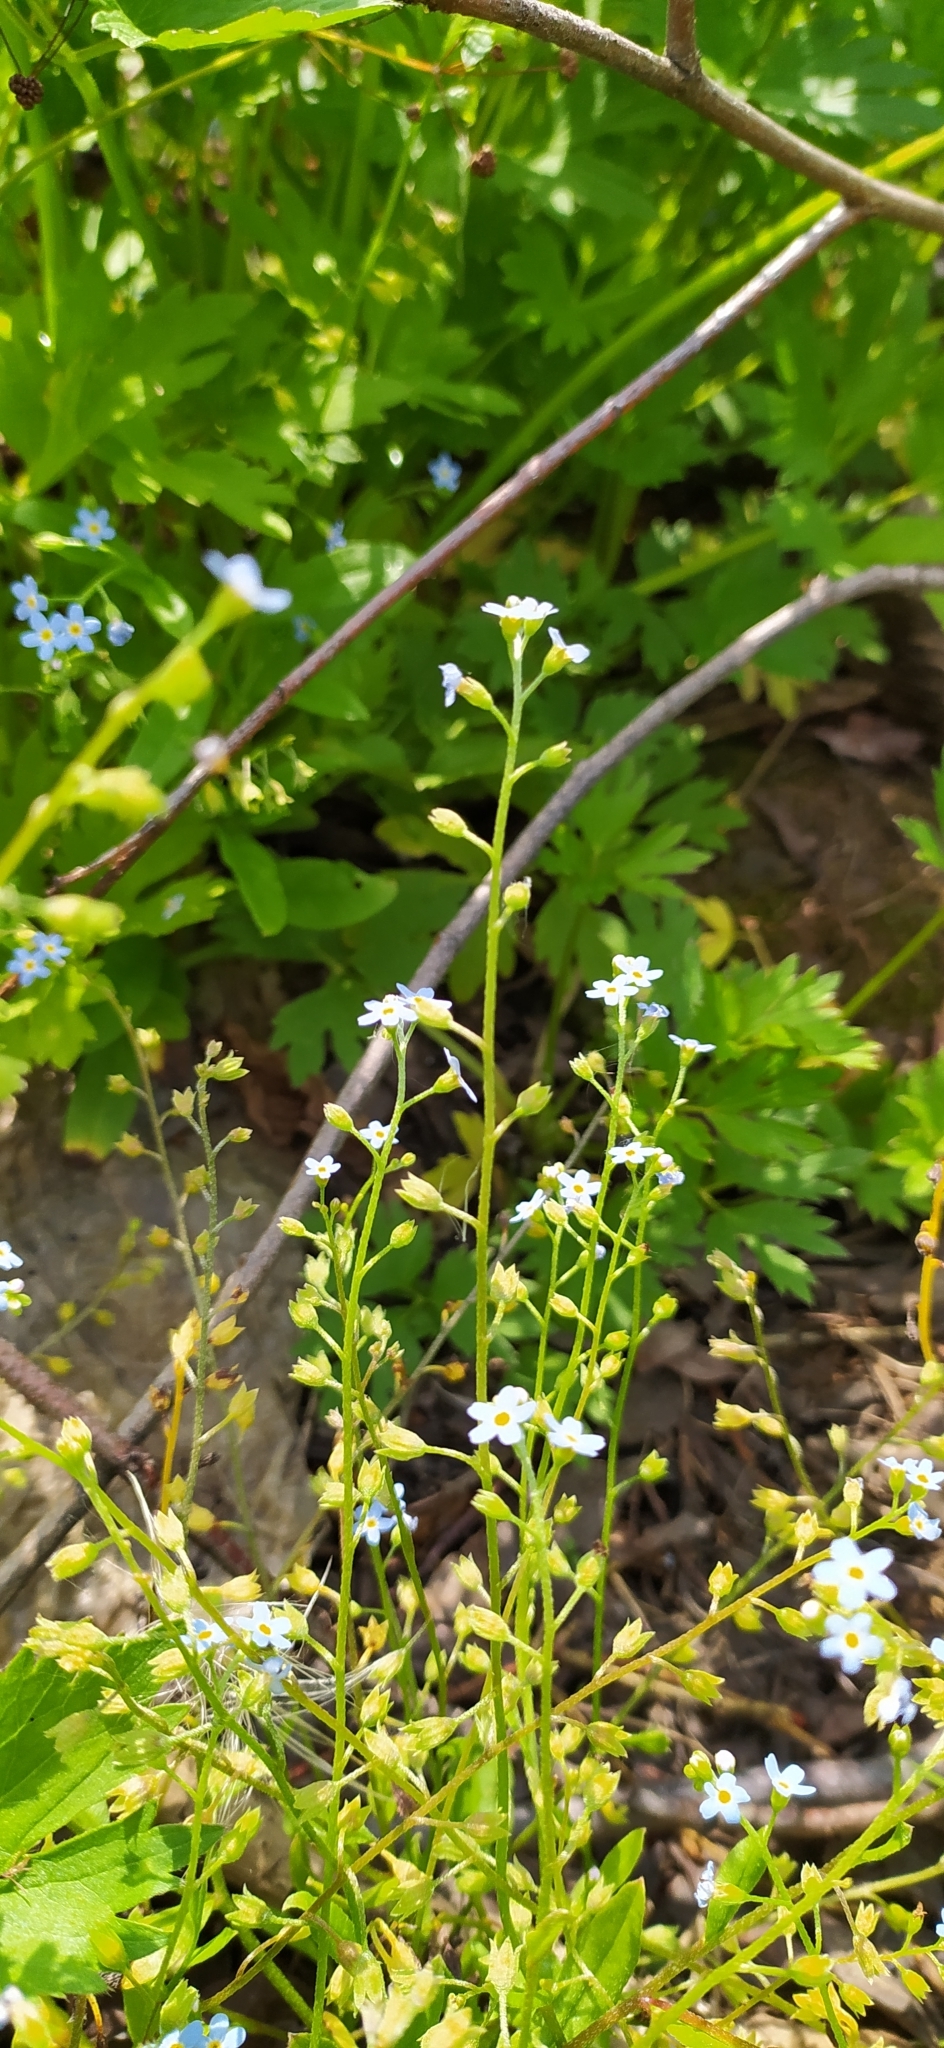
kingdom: Plantae
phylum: Tracheophyta
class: Magnoliopsida
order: Boraginales
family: Boraginaceae
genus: Myosotis
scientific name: Myosotis scorpioides
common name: Water forget-me-not
